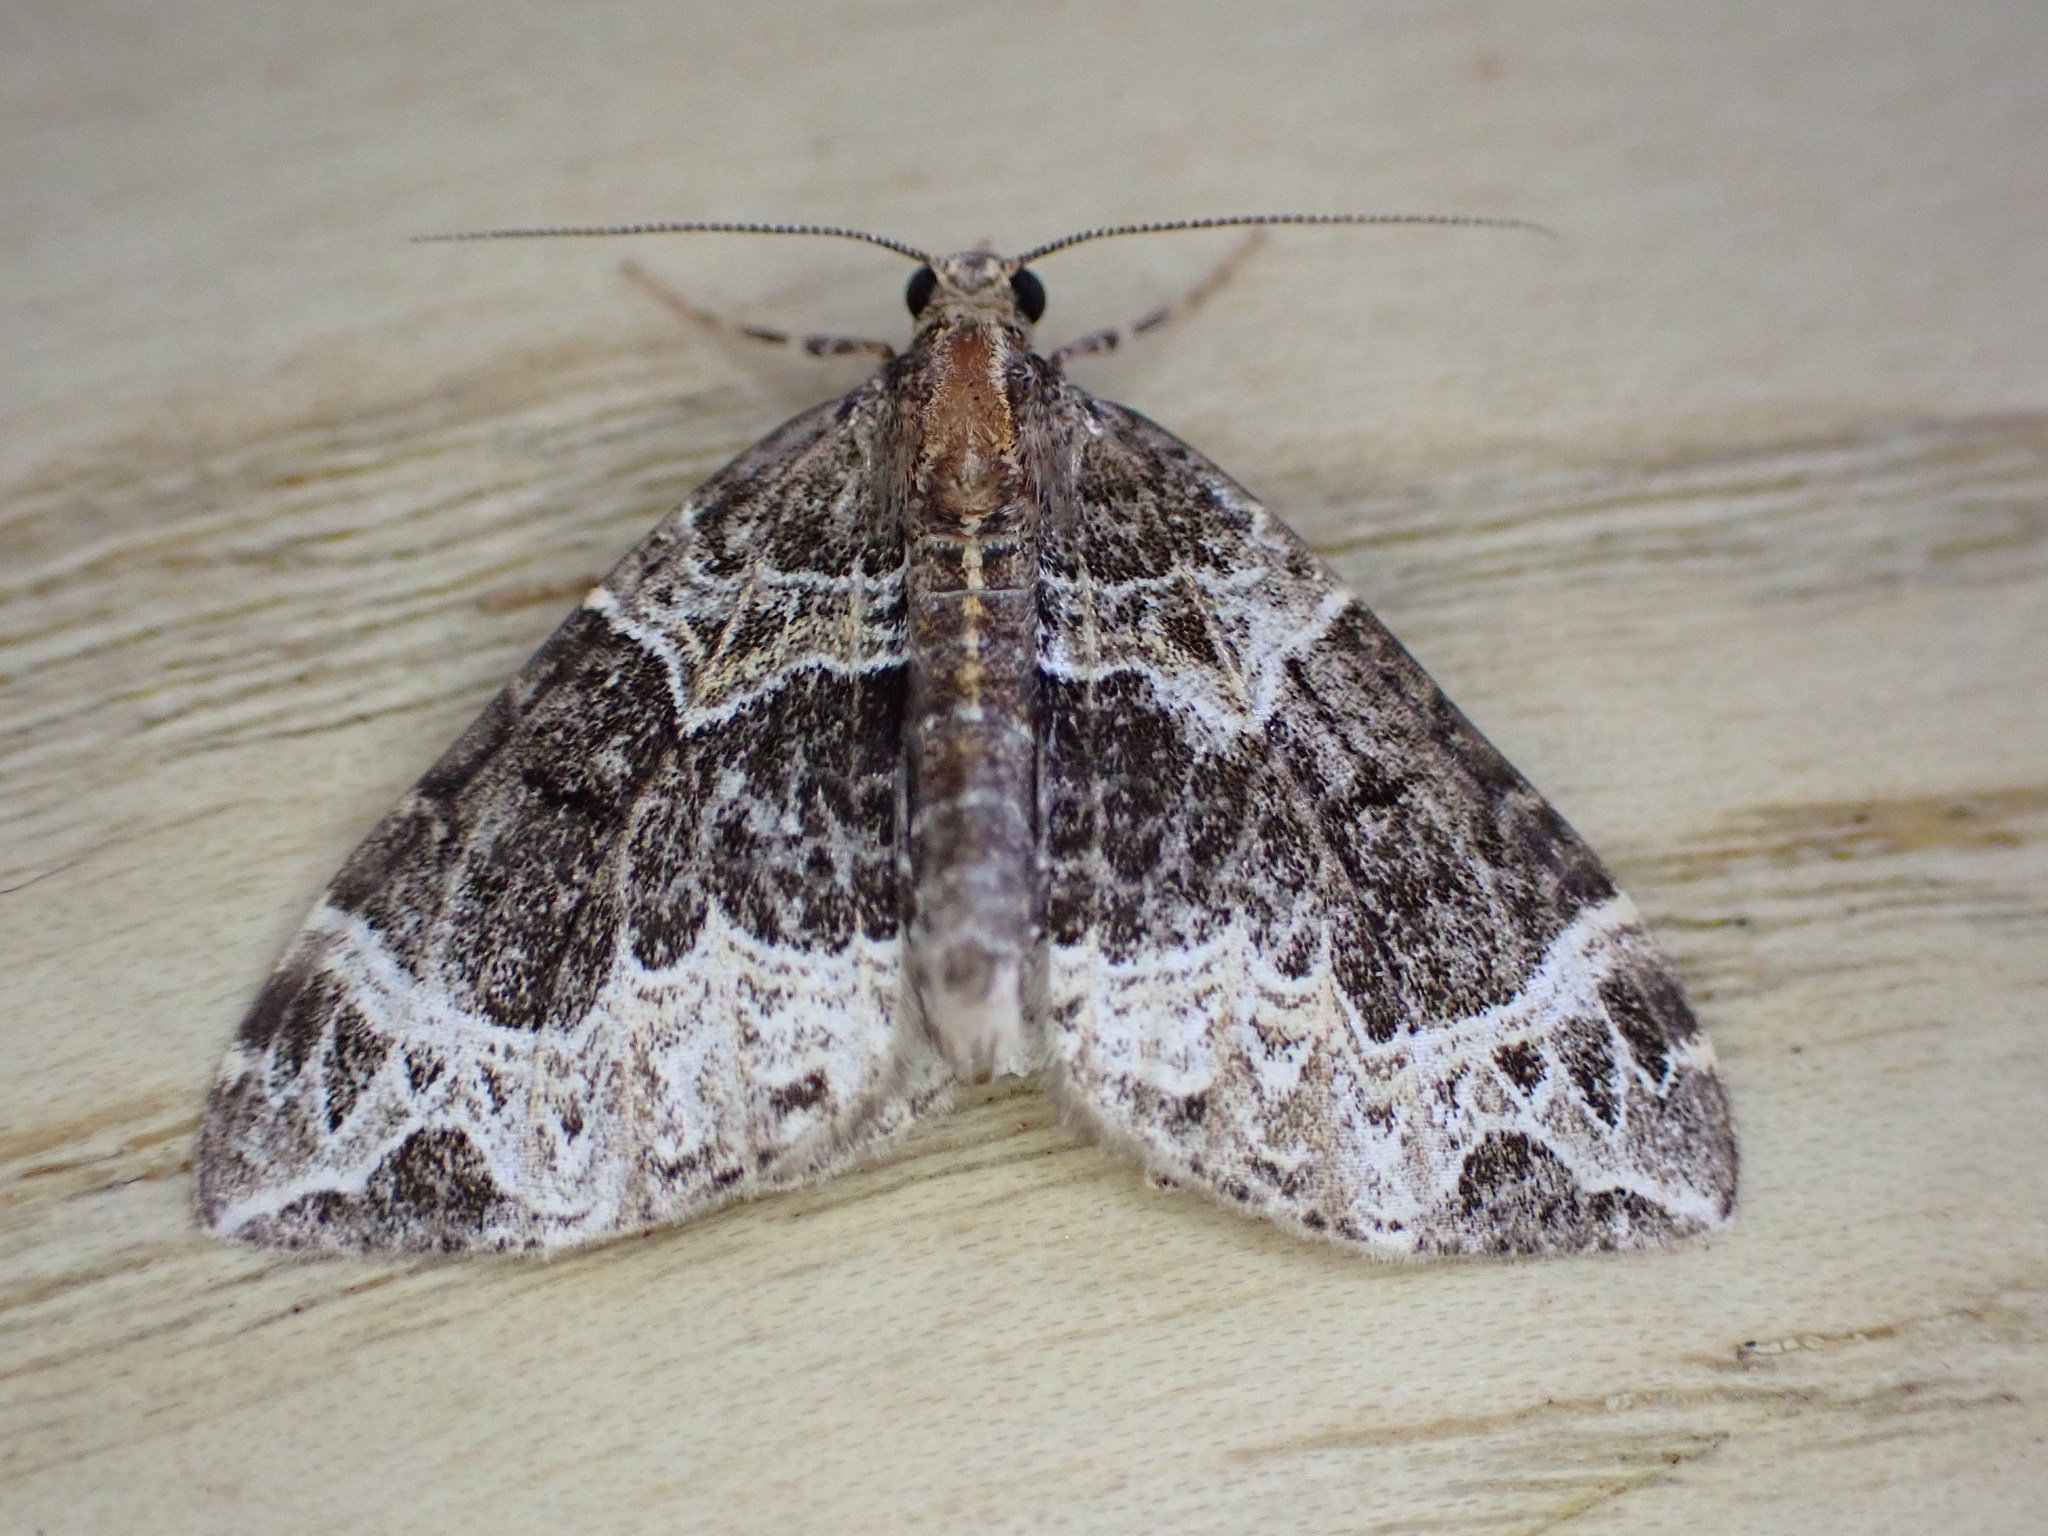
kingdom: Animalia
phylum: Arthropoda
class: Insecta
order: Lepidoptera
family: Geometridae
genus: Ecliptopera
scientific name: Ecliptopera silaceata
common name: Small phoenix
